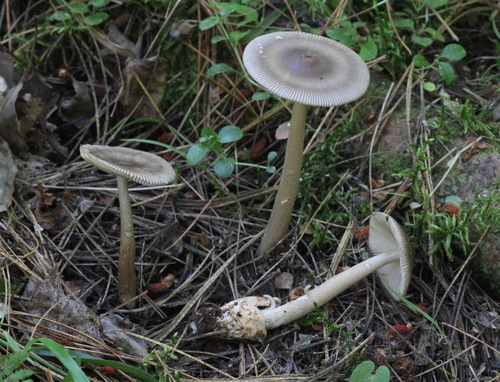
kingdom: Fungi
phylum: Basidiomycota
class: Agaricomycetes
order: Agaricales
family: Amanitaceae
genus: Amanita
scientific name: Amanita battarrae
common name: Banded amanita
